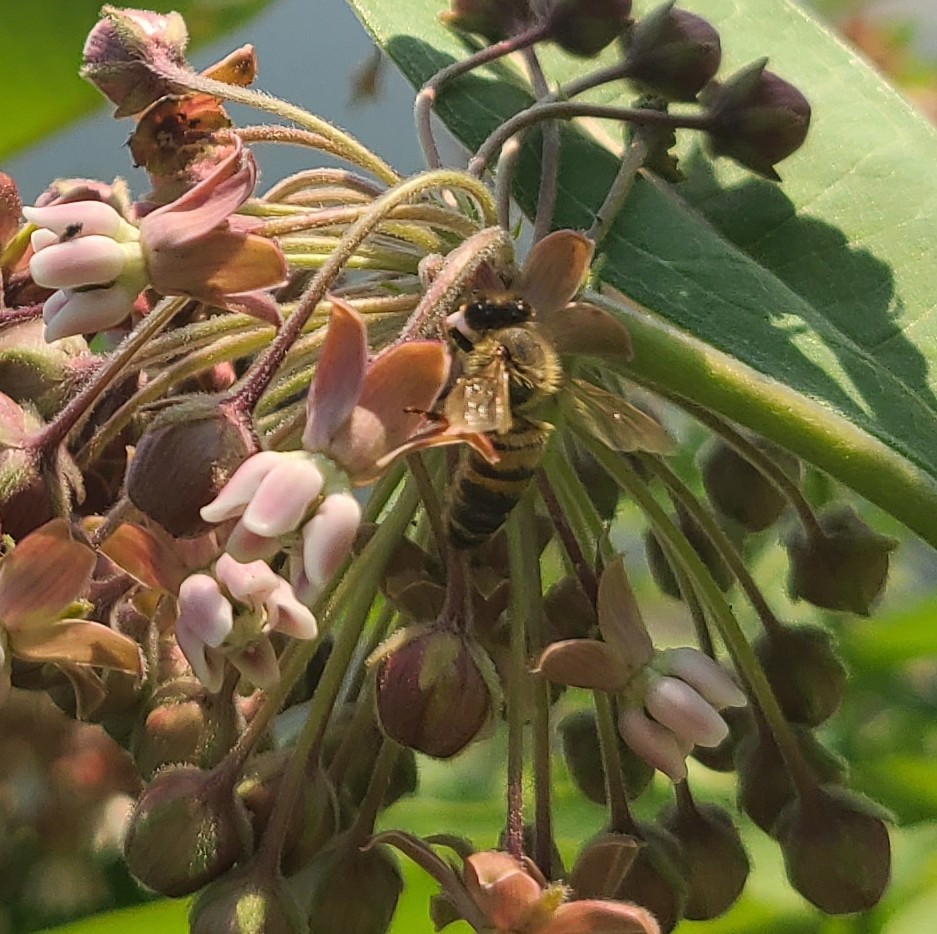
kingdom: Animalia
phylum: Arthropoda
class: Insecta
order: Hymenoptera
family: Apidae
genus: Apis
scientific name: Apis mellifera
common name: Honey bee
